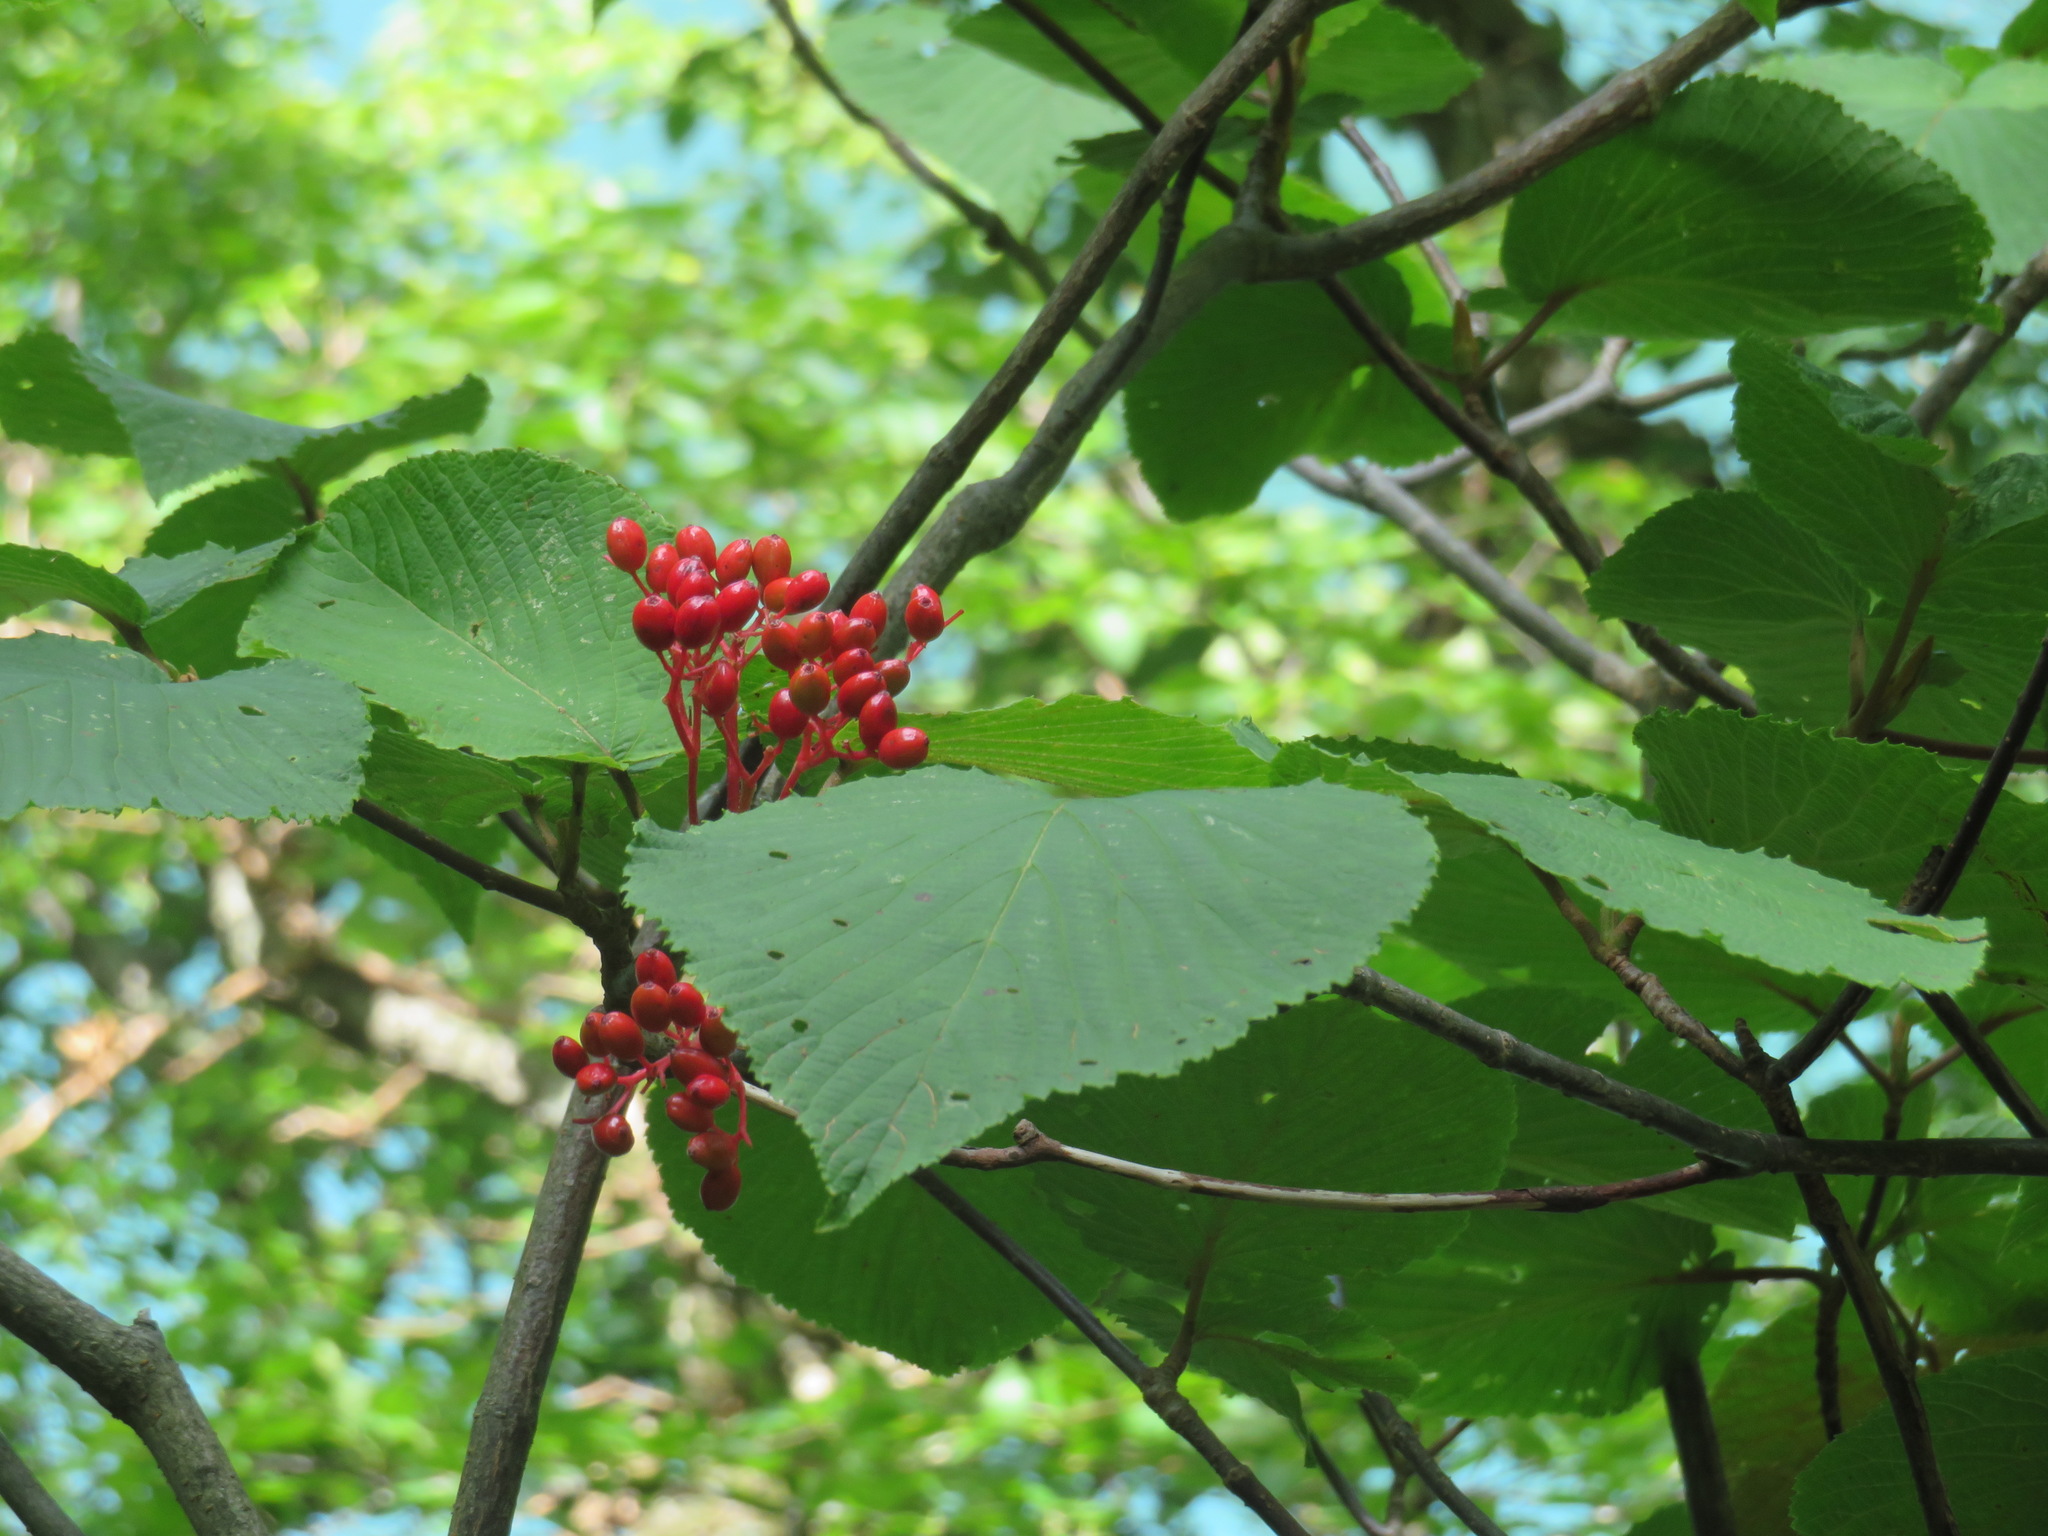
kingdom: Plantae
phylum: Tracheophyta
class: Magnoliopsida
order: Dipsacales
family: Viburnaceae
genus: Viburnum
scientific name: Viburnum furcatum
